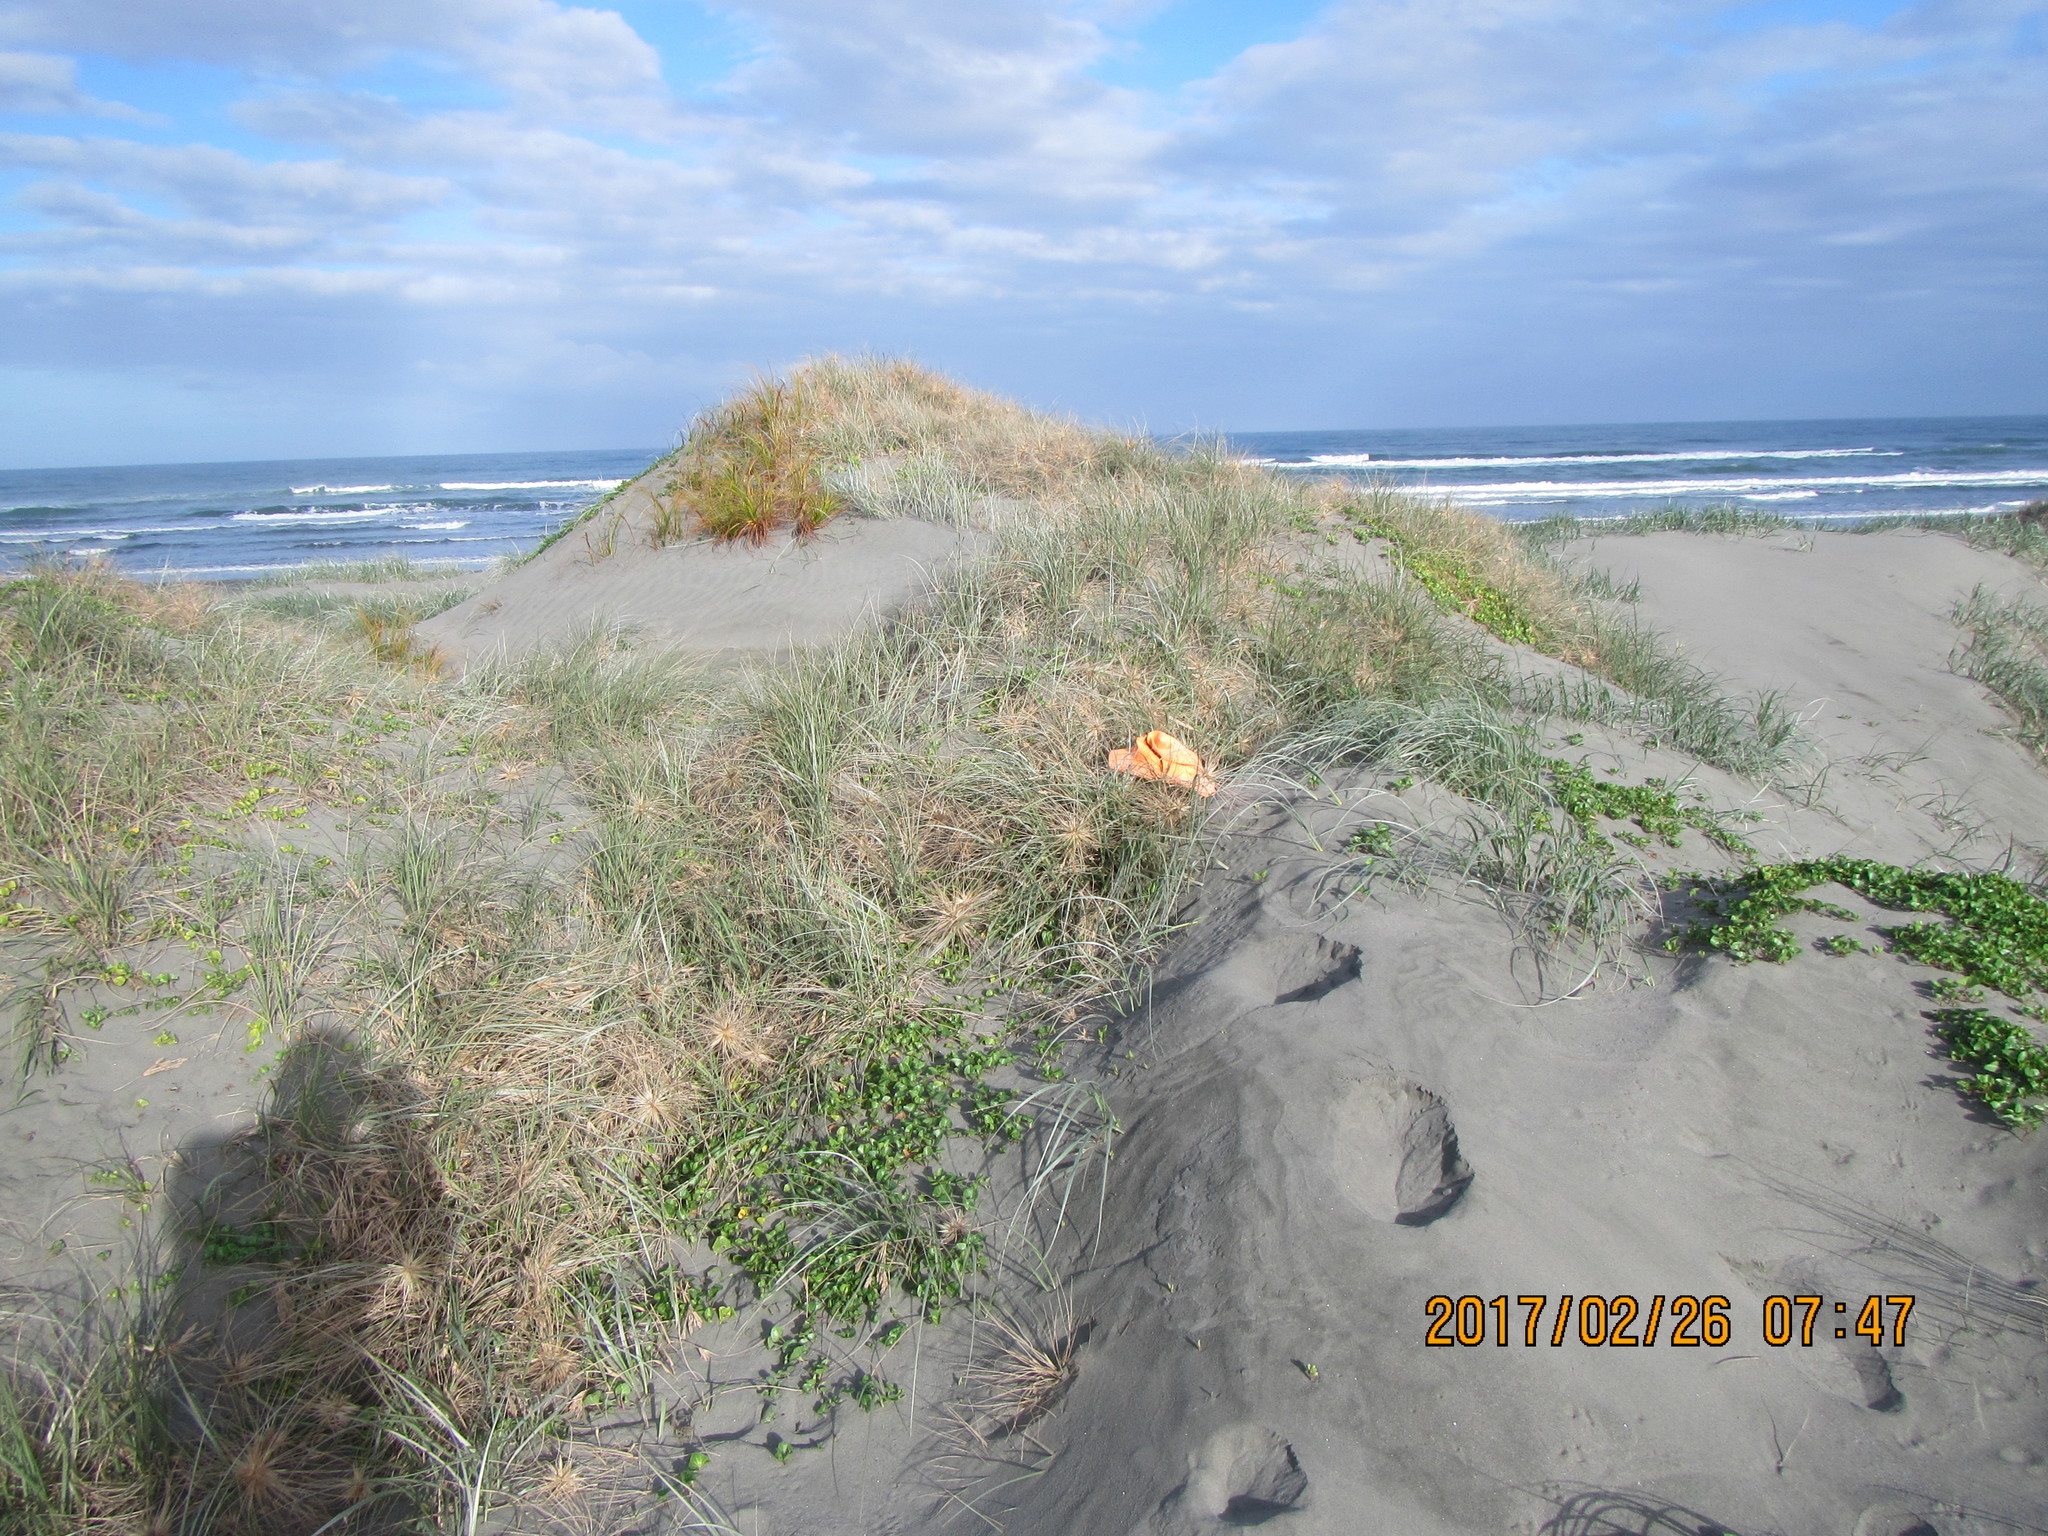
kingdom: Animalia
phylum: Arthropoda
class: Arachnida
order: Araneae
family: Thomisidae
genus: Sidymella
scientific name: Sidymella trapezia
